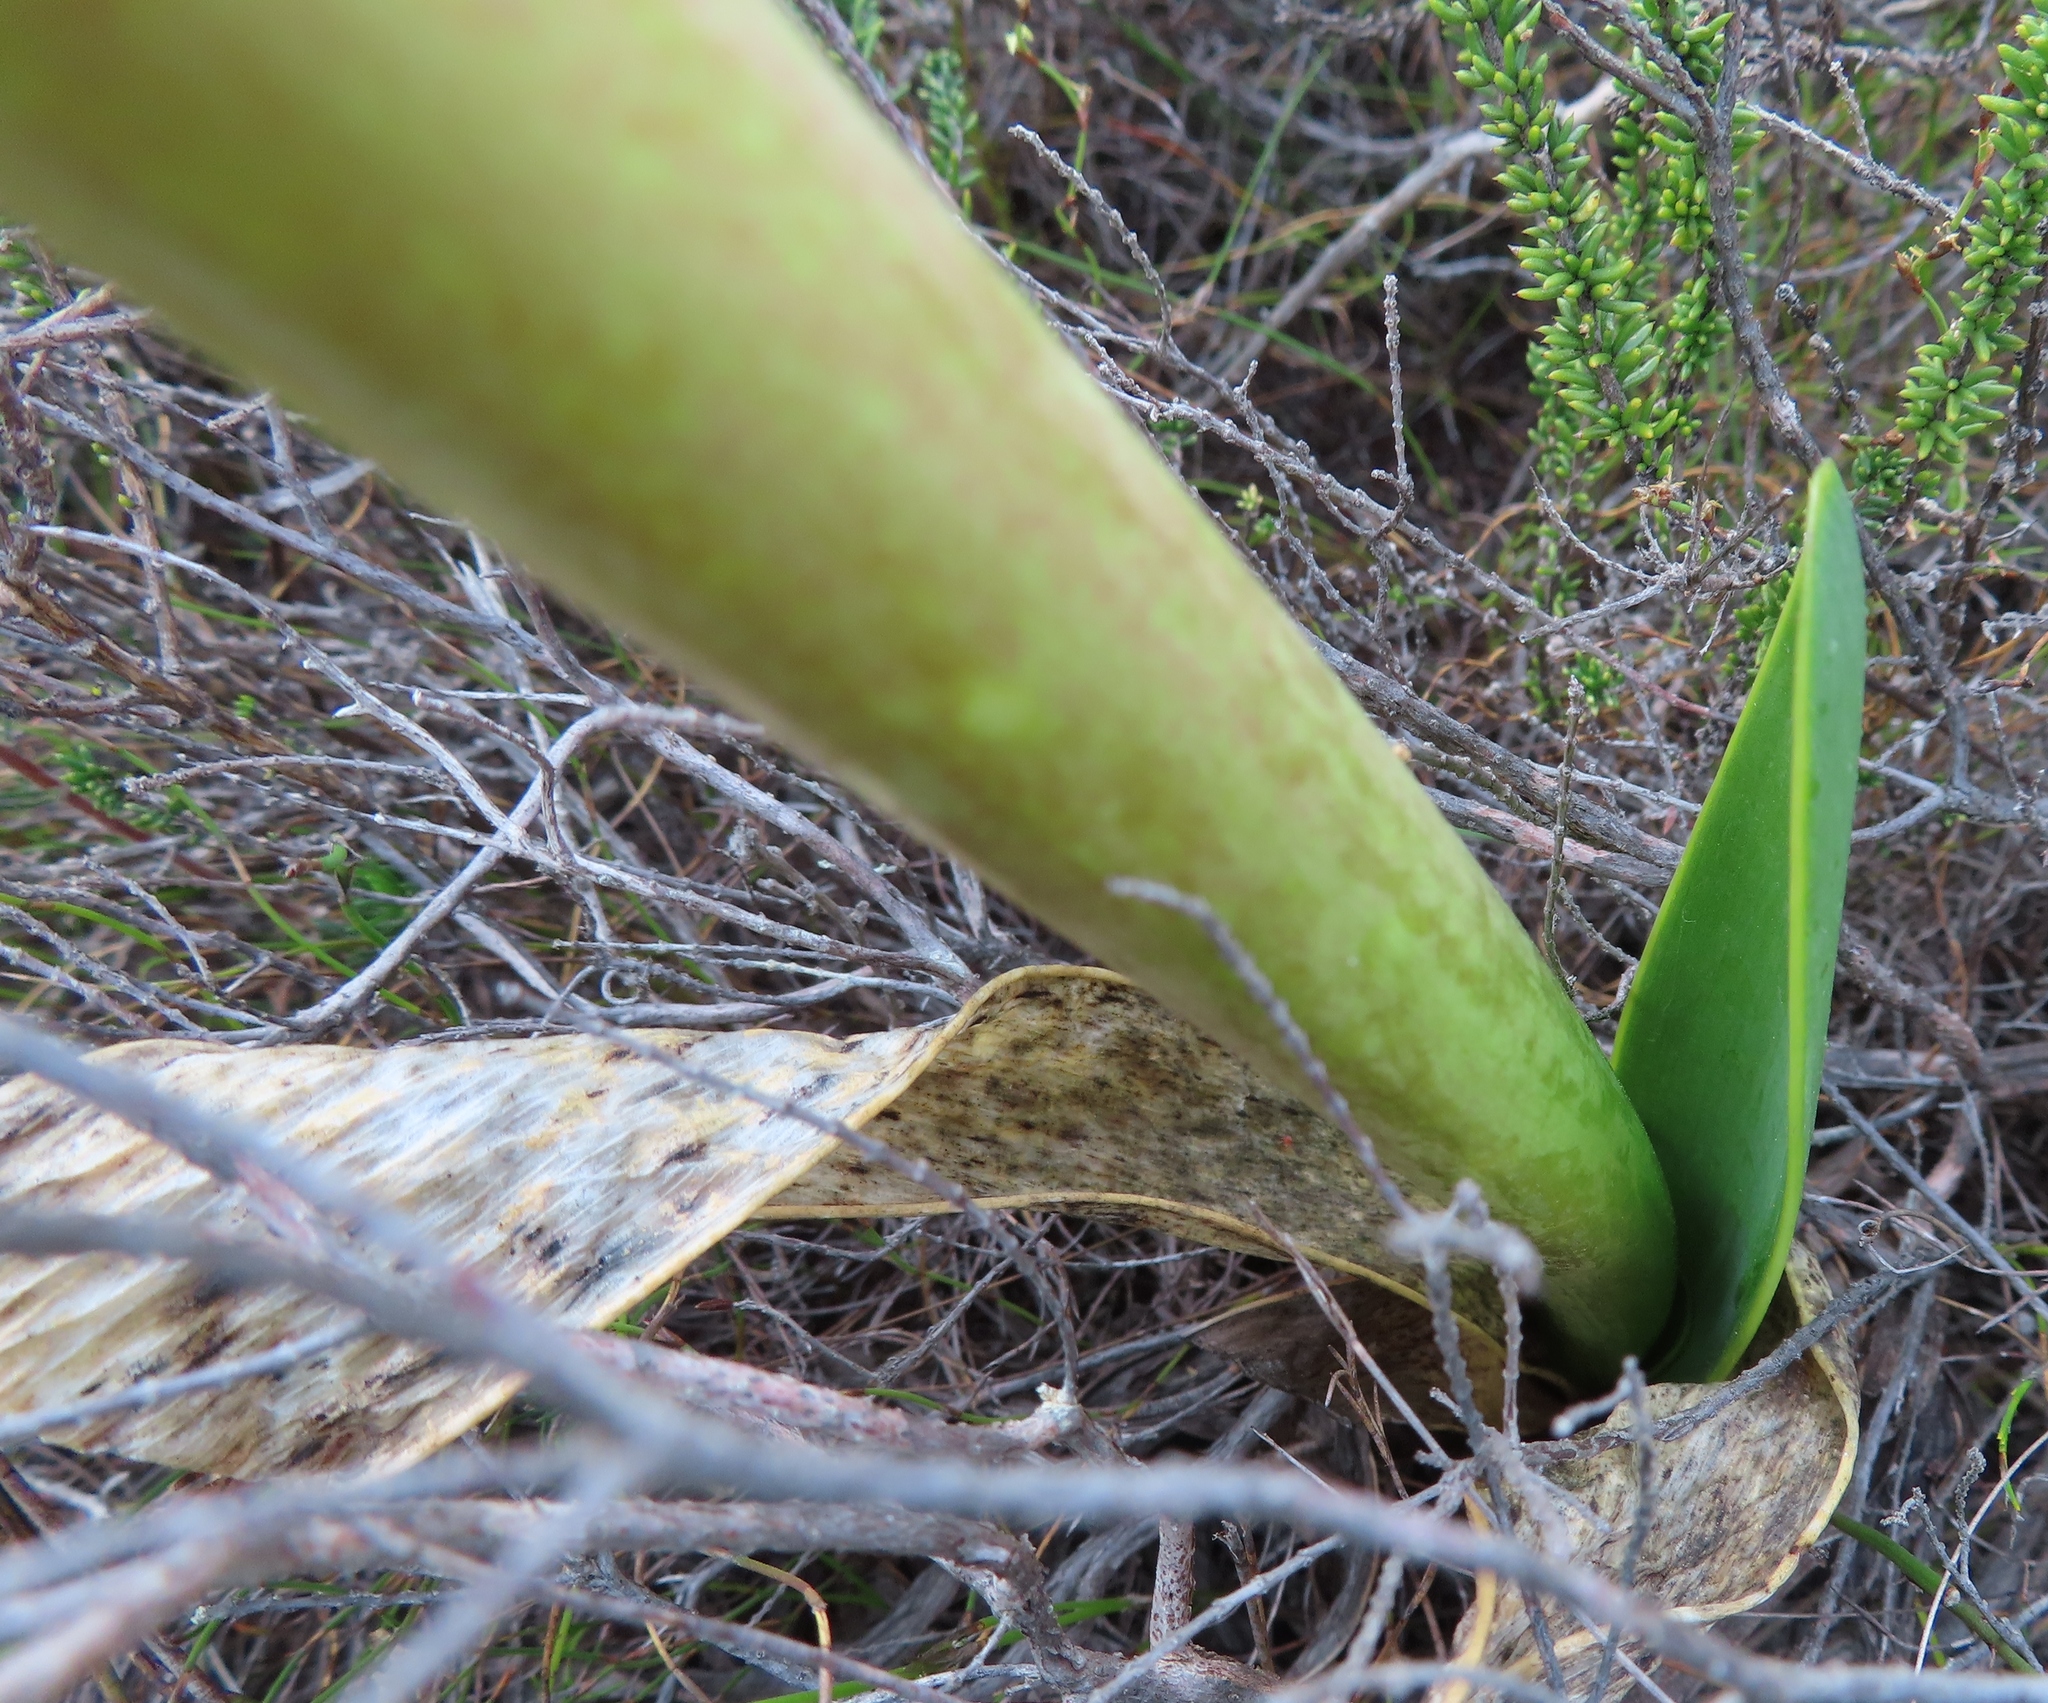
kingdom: Plantae
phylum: Tracheophyta
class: Liliopsida
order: Asparagales
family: Amaryllidaceae
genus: Cyrtanthus
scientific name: Cyrtanthus carneus
